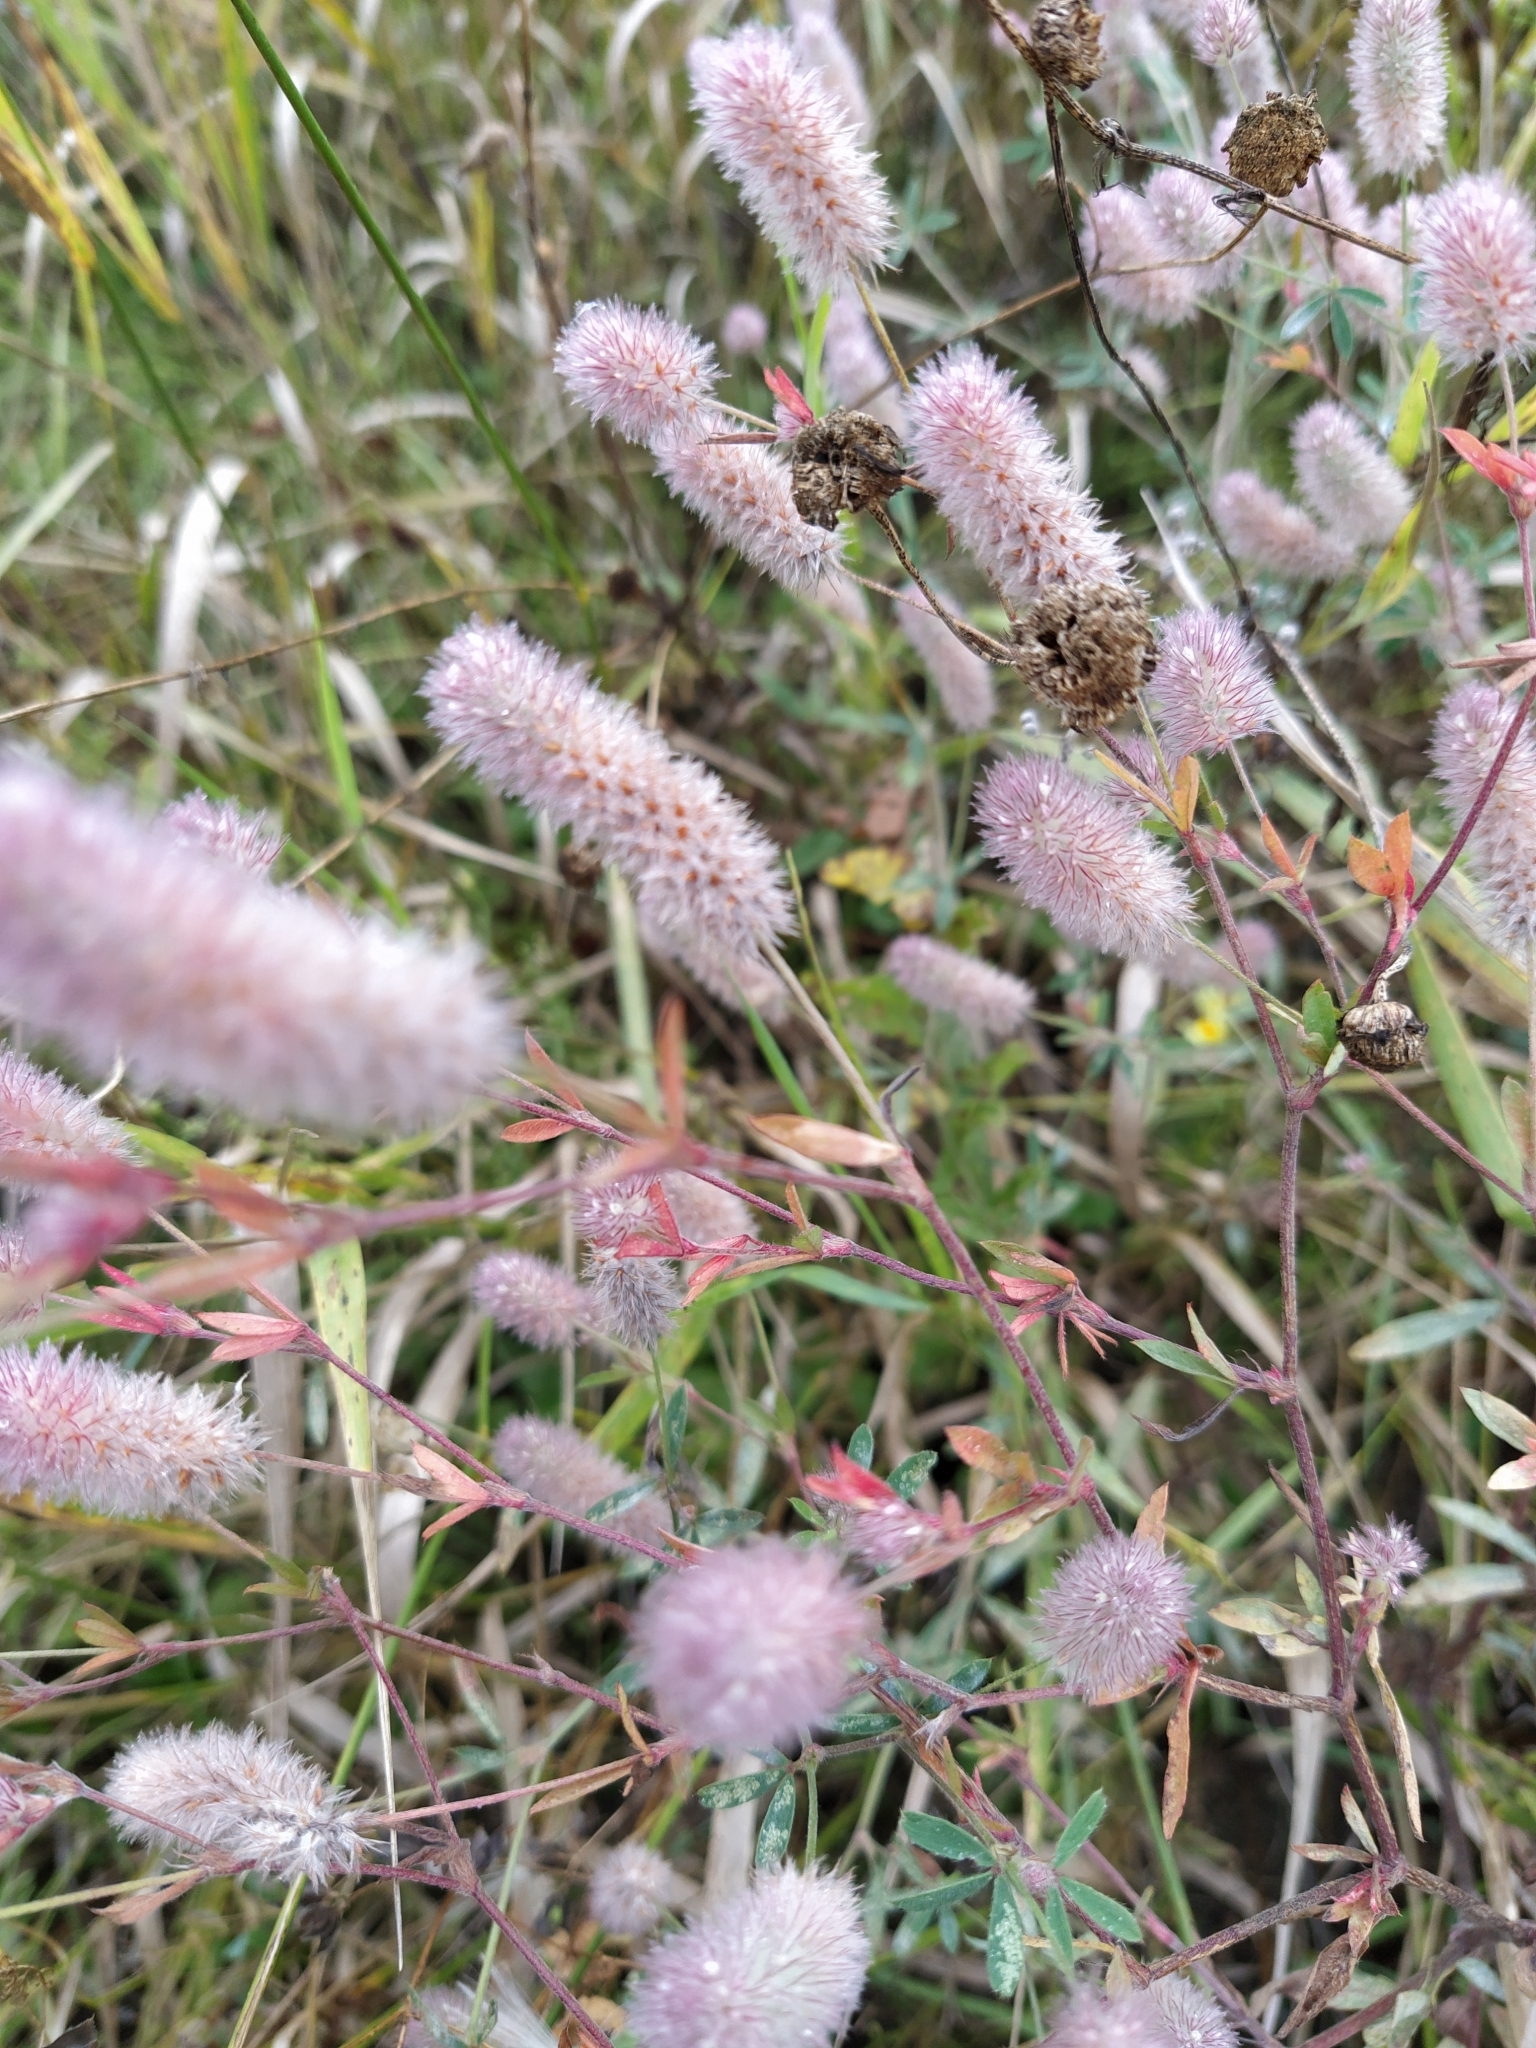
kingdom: Plantae
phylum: Tracheophyta
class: Magnoliopsida
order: Fabales
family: Fabaceae
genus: Trifolium
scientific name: Trifolium arvense
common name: Hare's-foot clover
